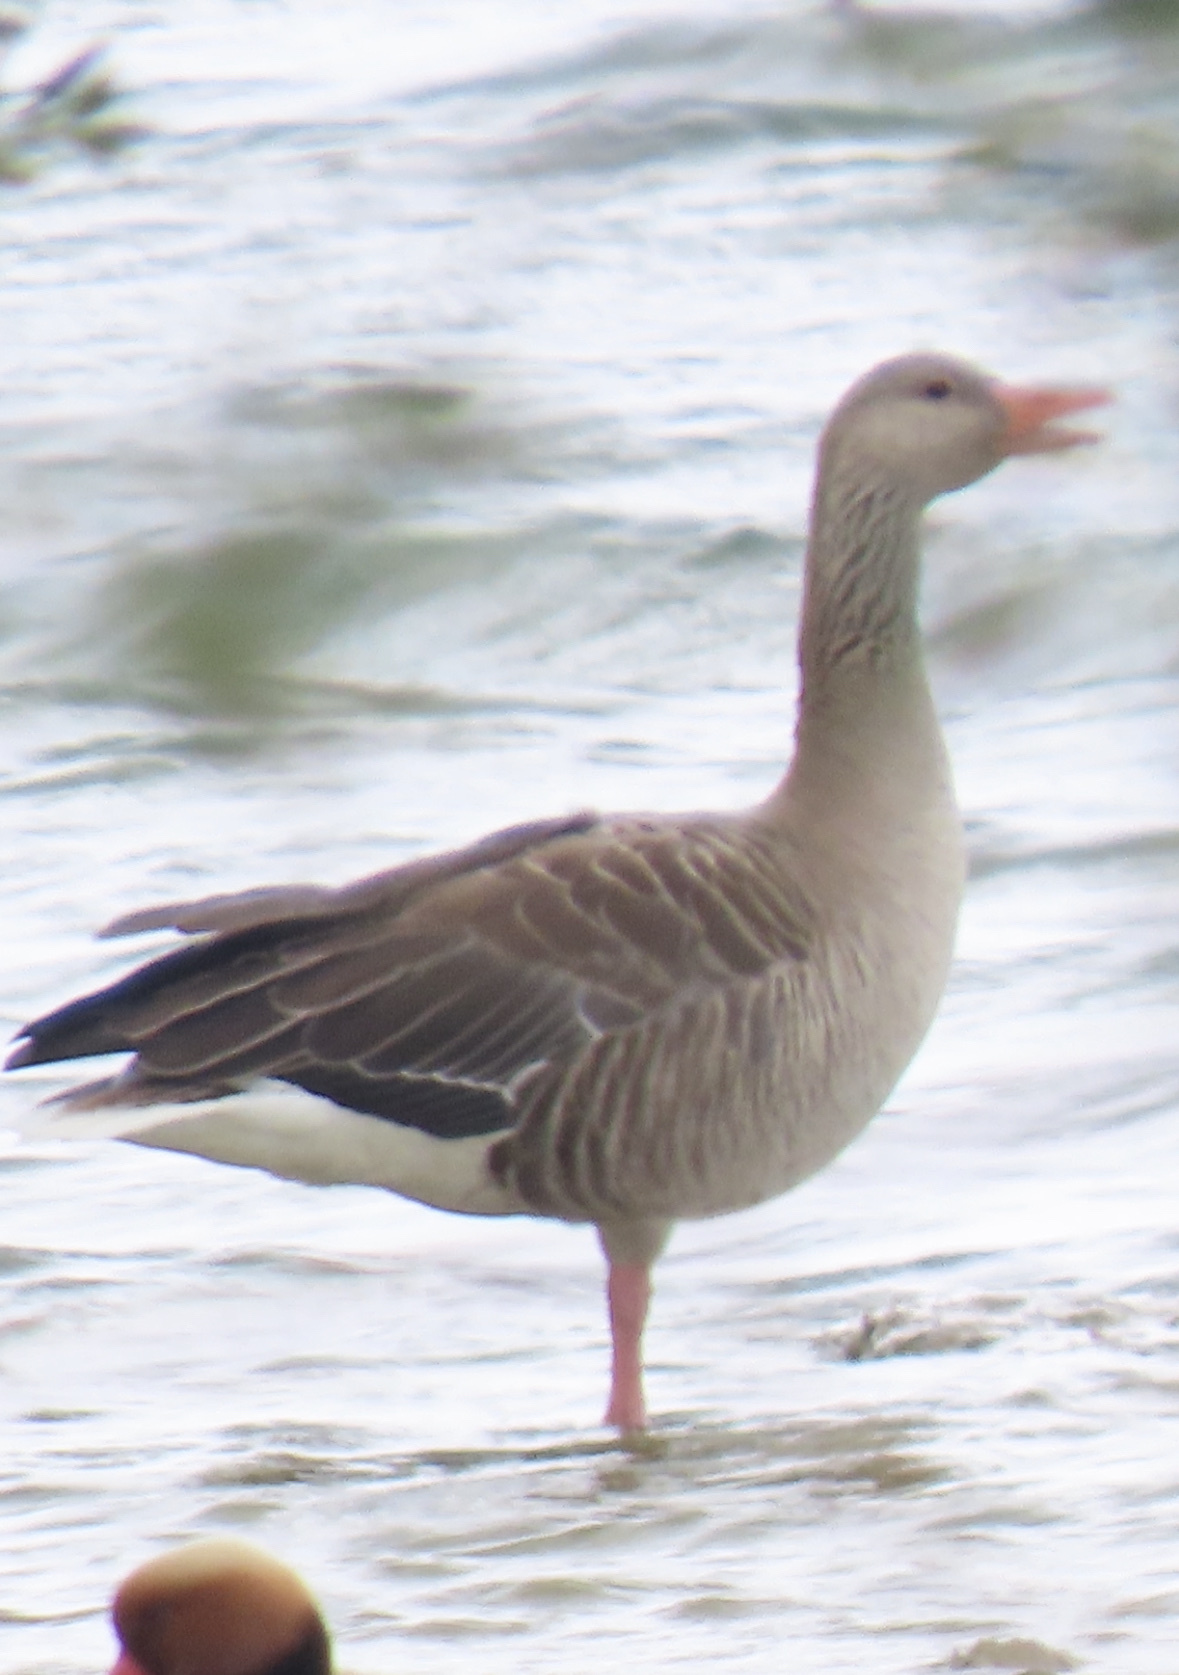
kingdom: Animalia
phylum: Chordata
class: Aves
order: Anseriformes
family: Anatidae
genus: Anser
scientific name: Anser anser
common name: Greylag goose
